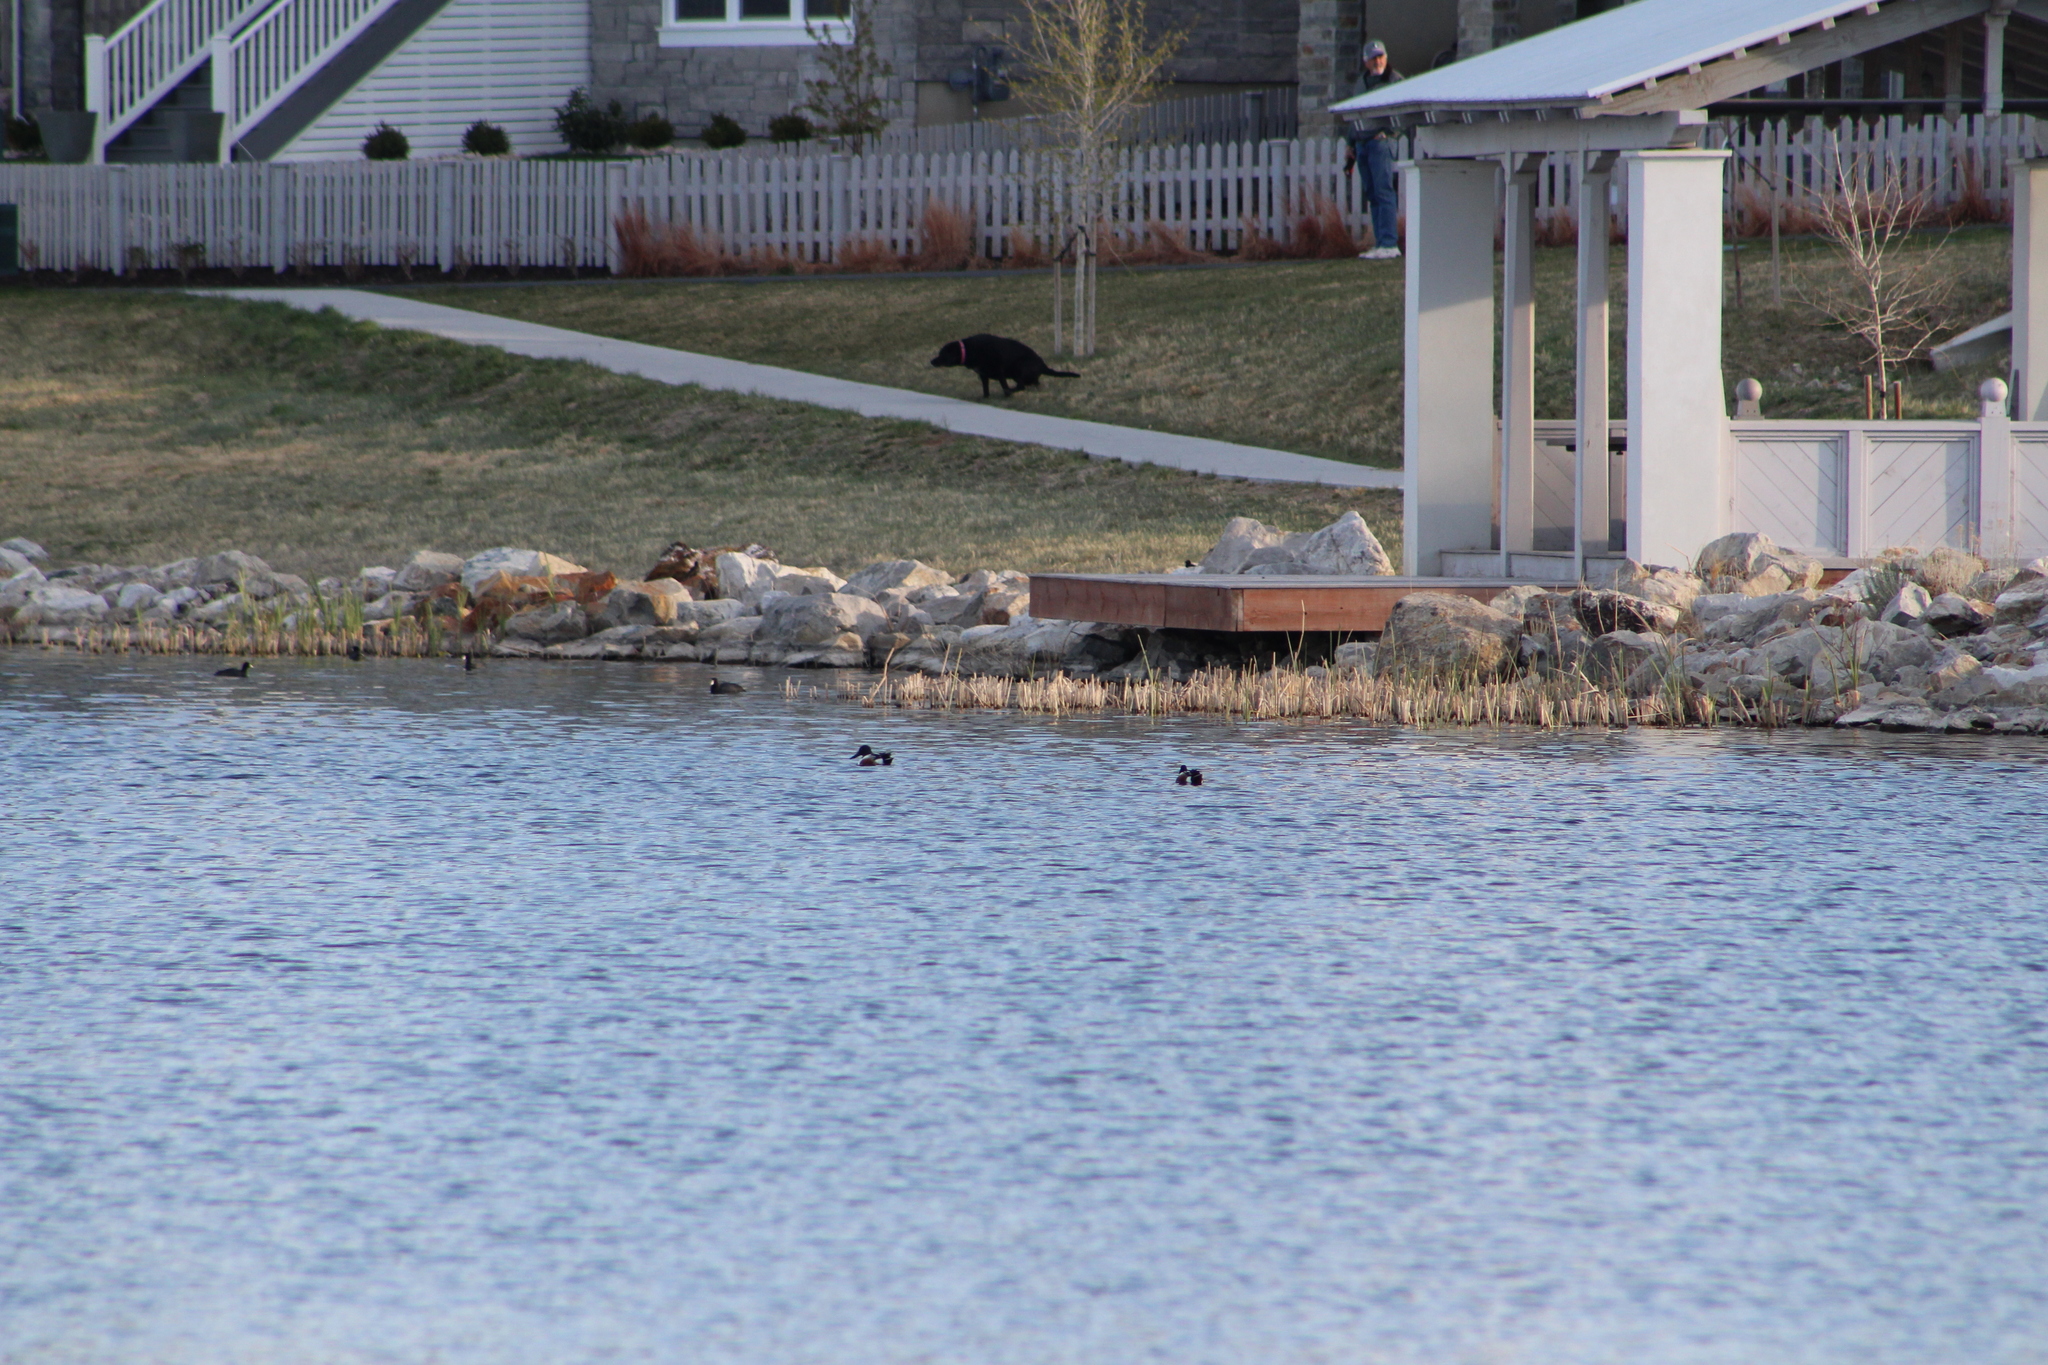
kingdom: Animalia
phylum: Chordata
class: Aves
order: Anseriformes
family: Anatidae
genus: Spatula
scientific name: Spatula clypeata
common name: Northern shoveler
